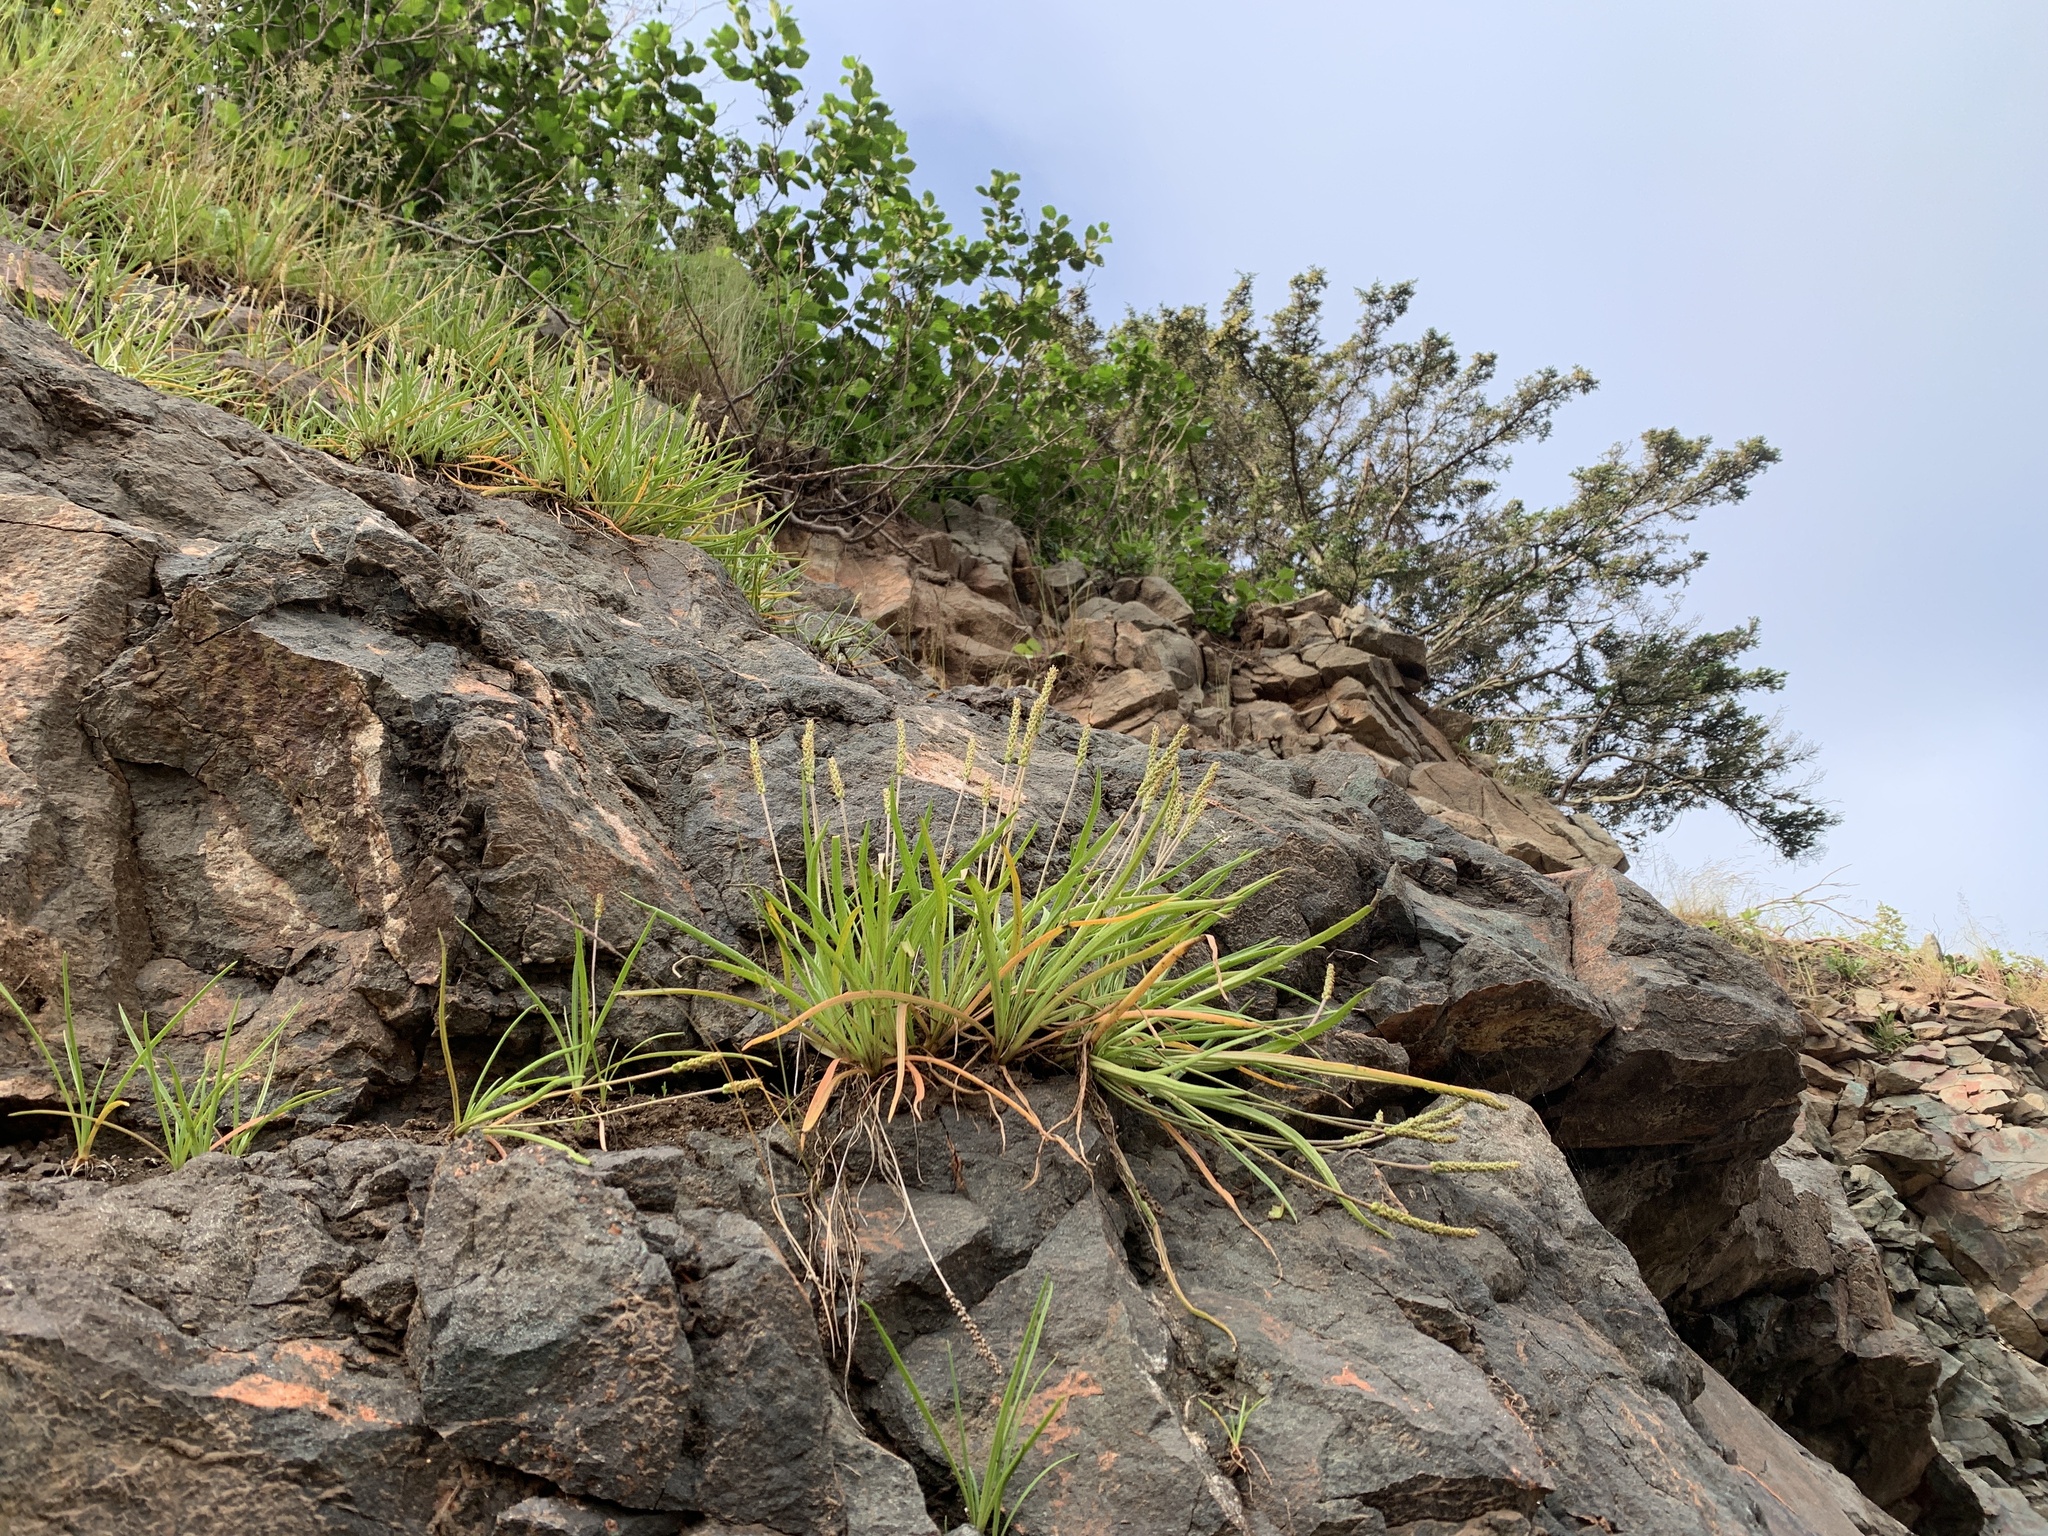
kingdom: Plantae
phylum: Tracheophyta
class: Magnoliopsida
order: Lamiales
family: Plantaginaceae
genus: Plantago
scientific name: Plantago maritima
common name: Sea plantain
